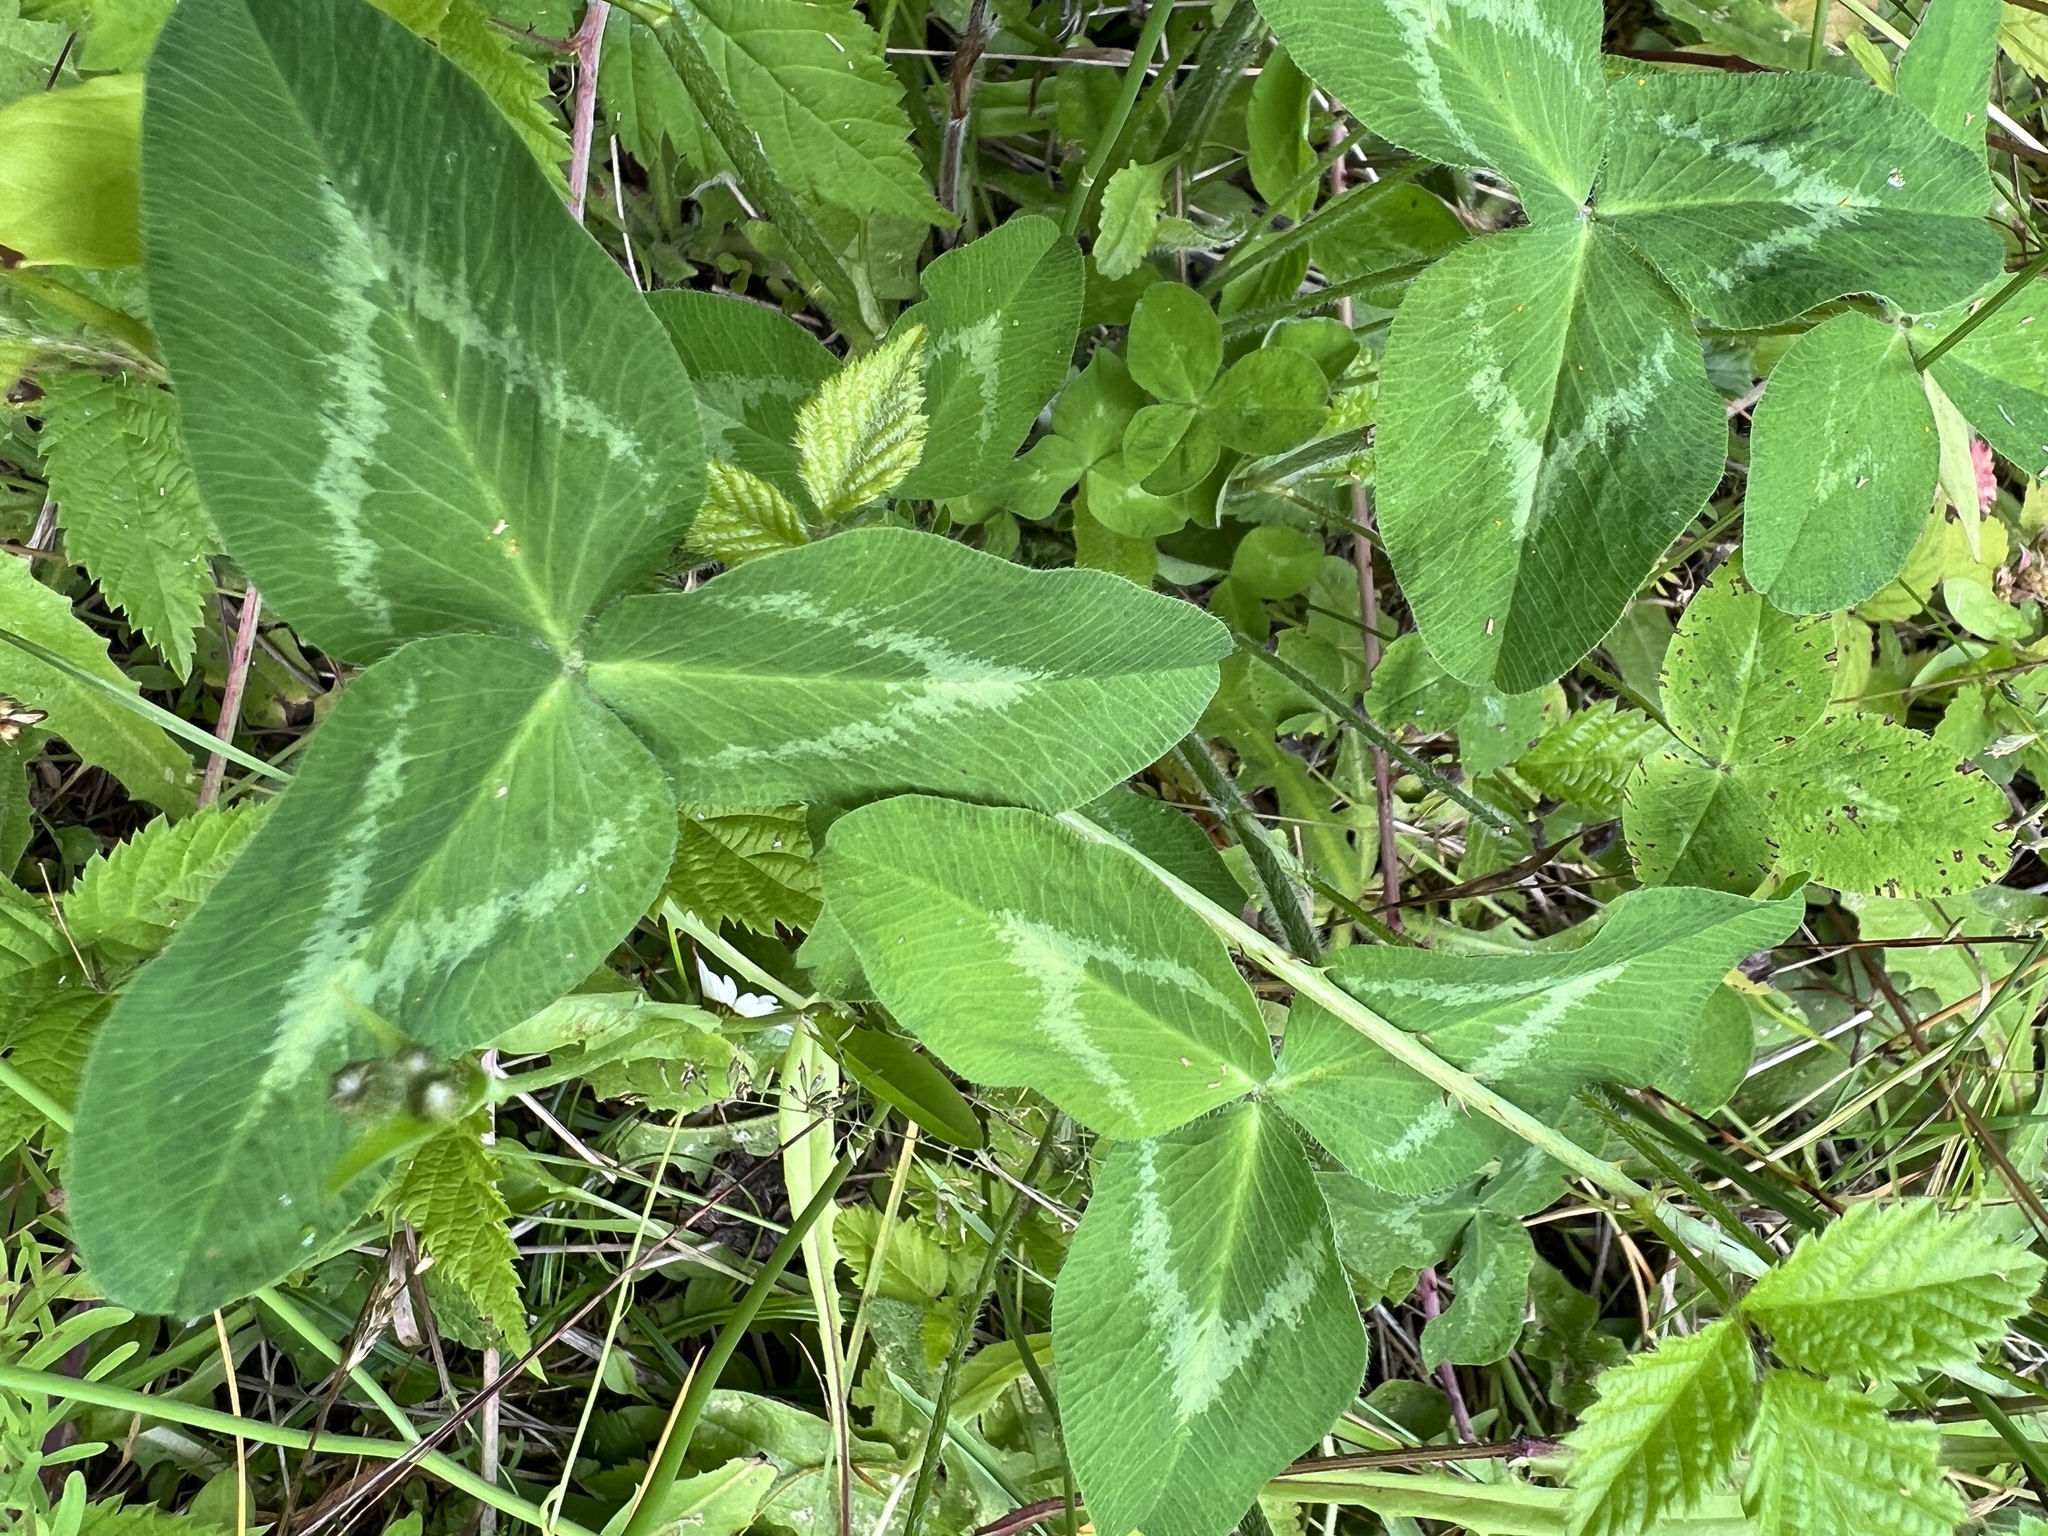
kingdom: Plantae
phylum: Tracheophyta
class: Magnoliopsida
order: Fabales
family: Fabaceae
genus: Trifolium
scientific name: Trifolium pratense
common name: Red clover
